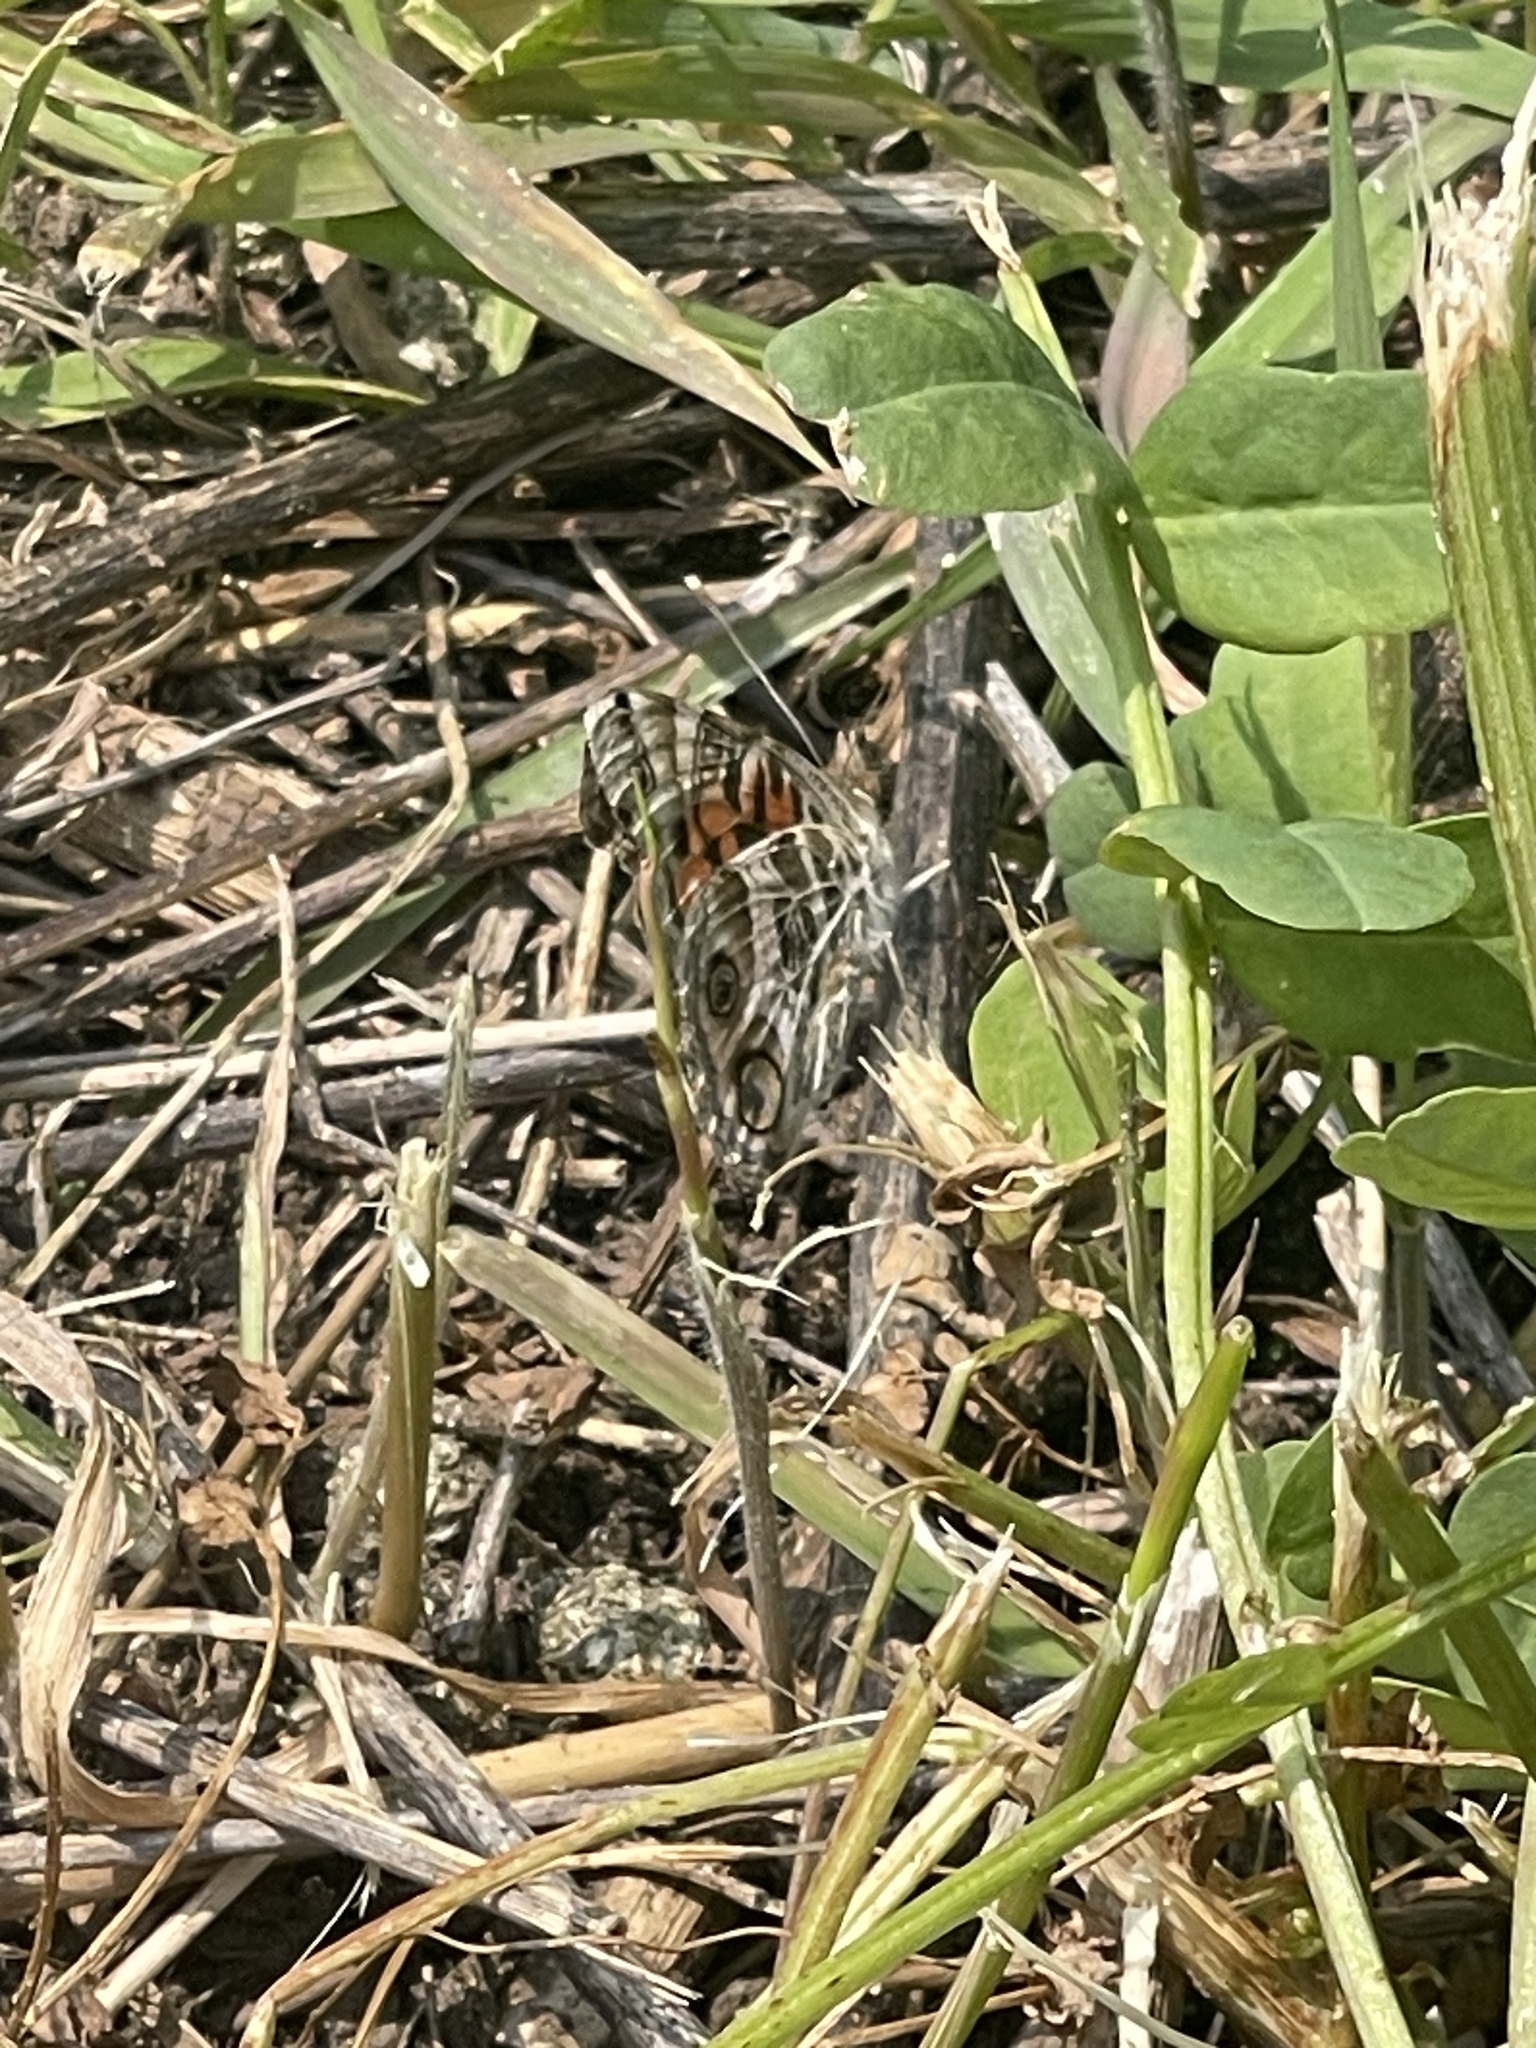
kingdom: Animalia
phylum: Arthropoda
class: Insecta
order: Lepidoptera
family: Nymphalidae
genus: Vanessa
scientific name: Vanessa virginiensis
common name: American lady
